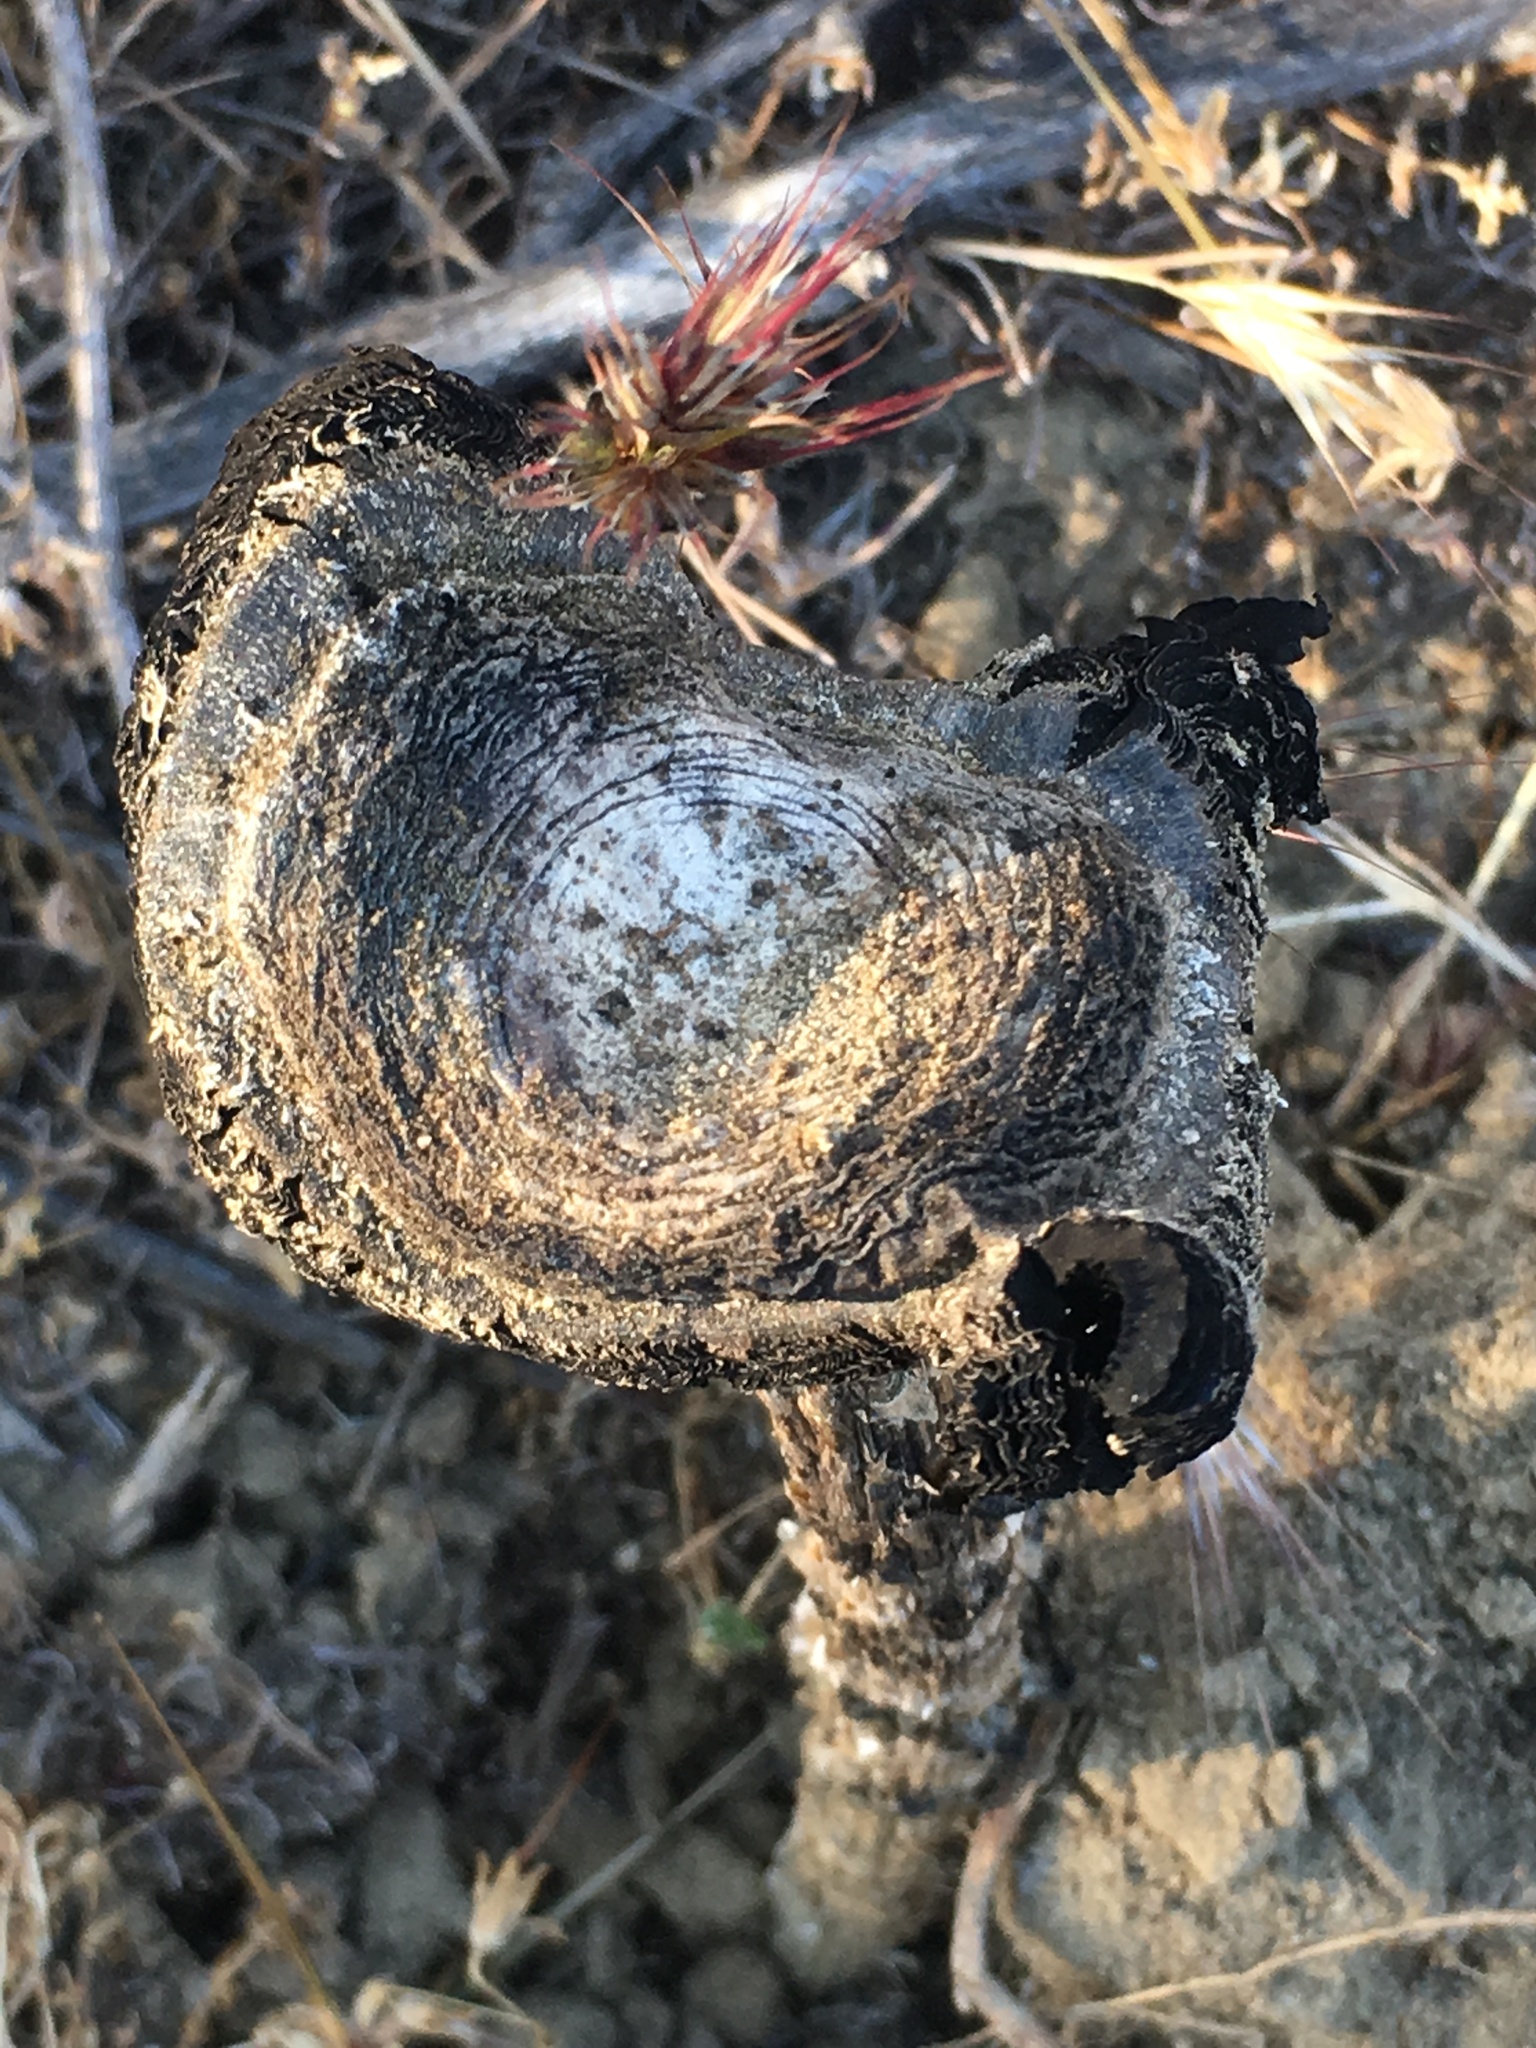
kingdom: Fungi
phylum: Basidiomycota
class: Agaricomycetes
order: Agaricales
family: Agaricaceae
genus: Montagnea
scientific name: Montagnea arenaria
